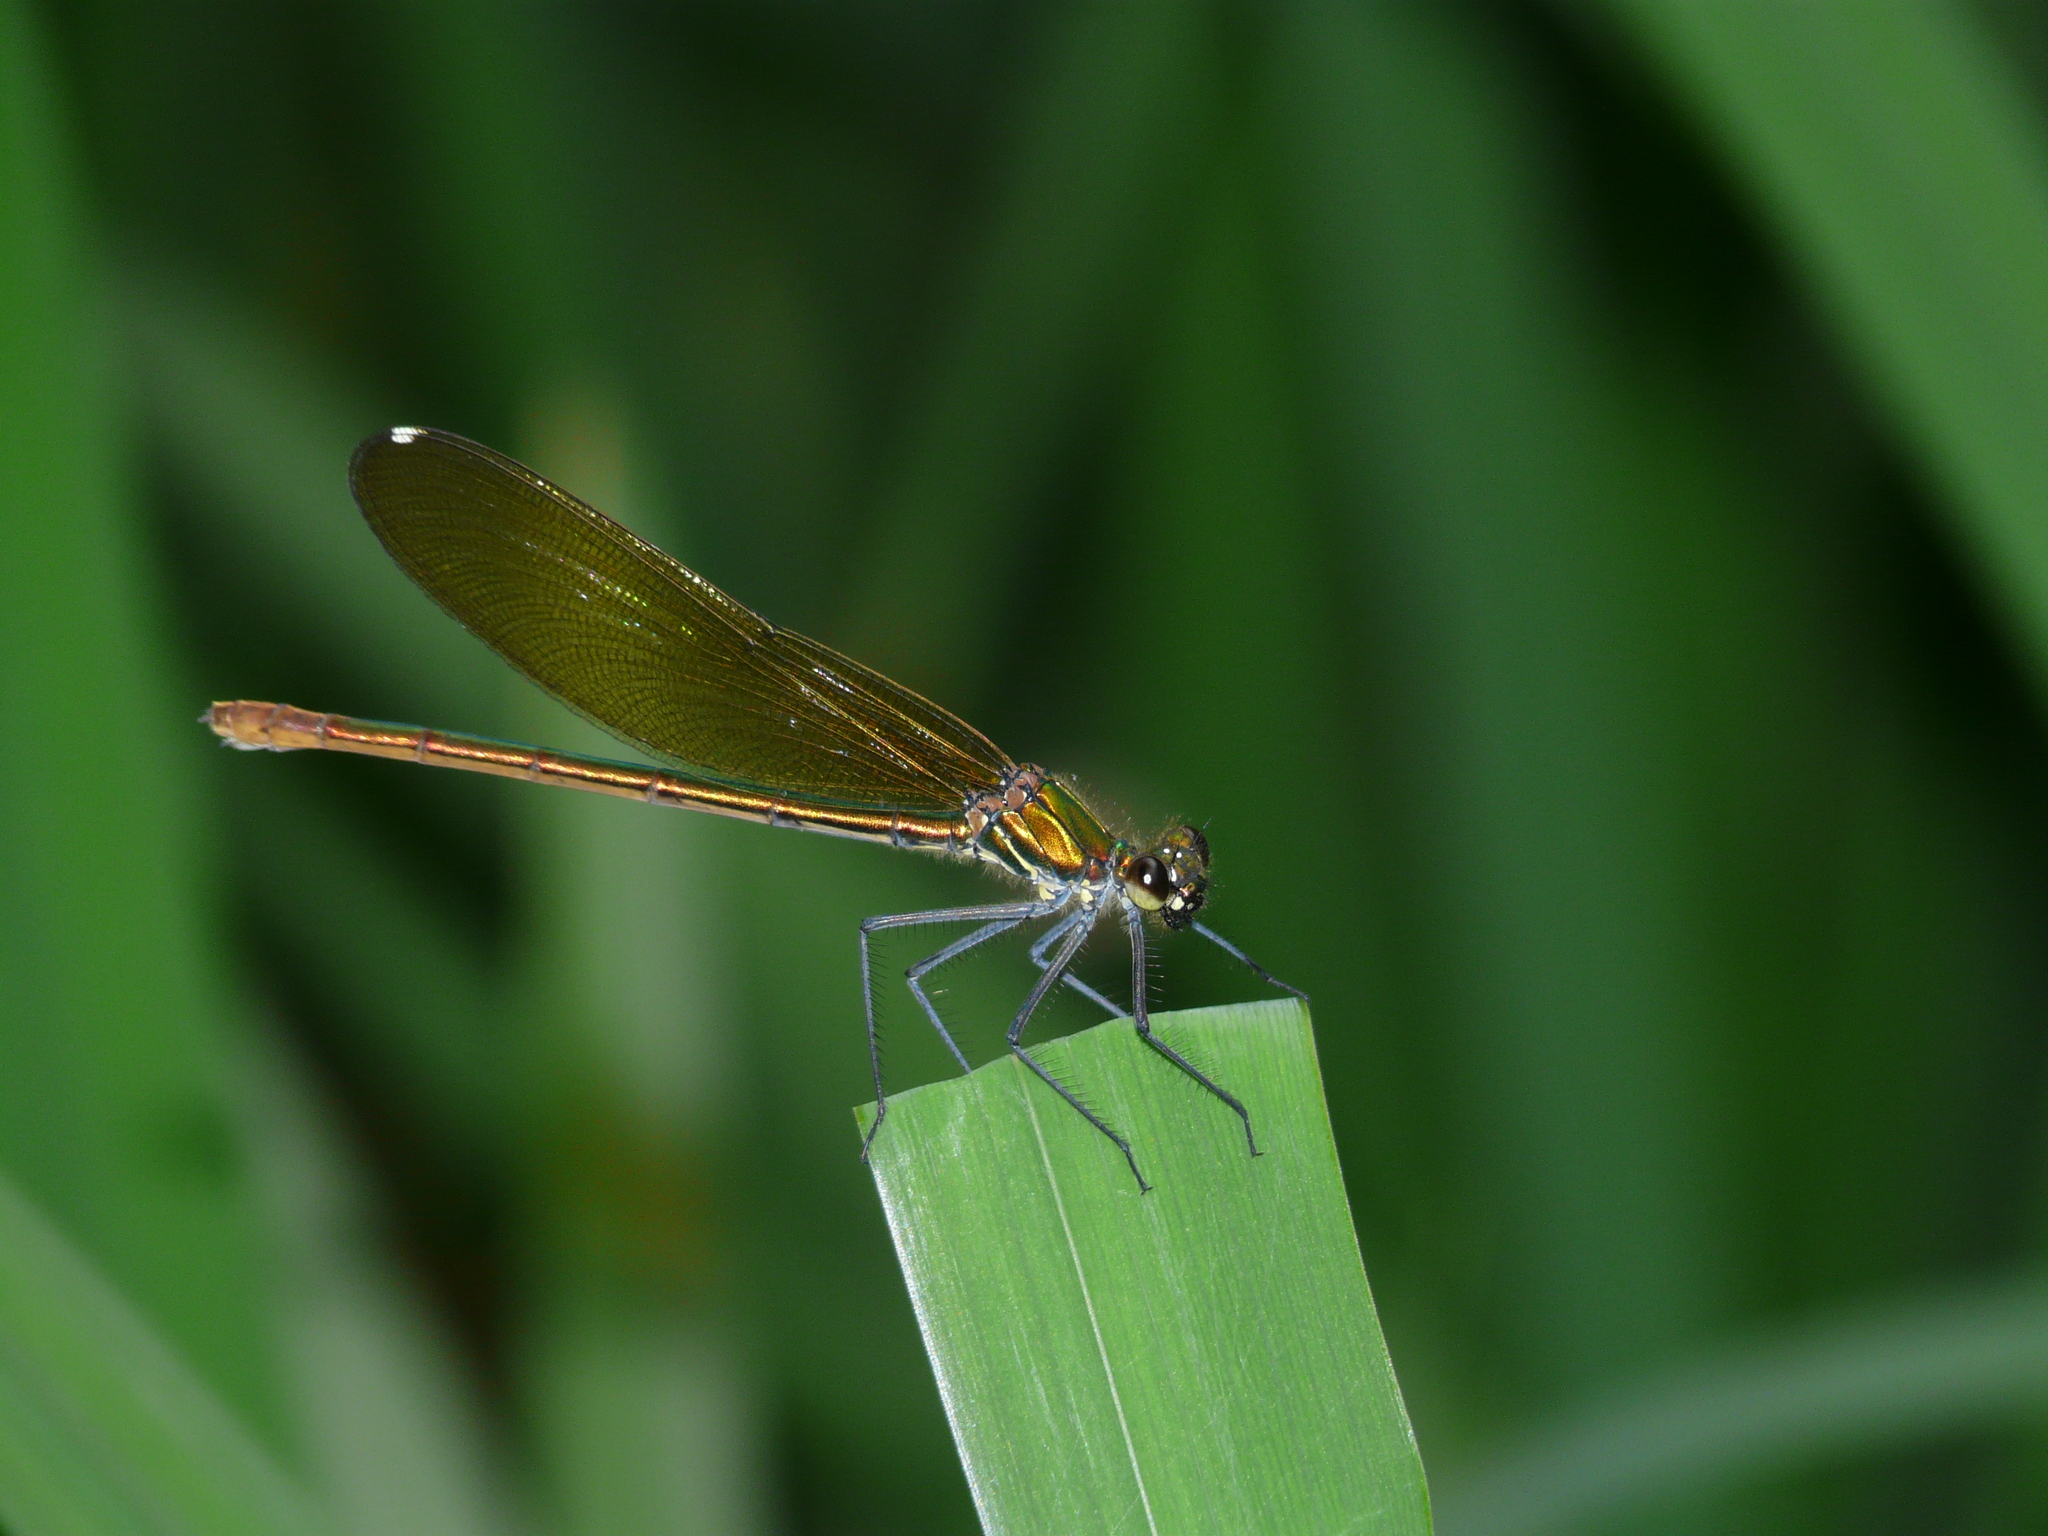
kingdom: Animalia
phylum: Arthropoda
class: Insecta
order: Odonata
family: Calopterygidae
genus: Calopteryx
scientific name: Calopteryx xanthostoma
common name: Western demoiselle
